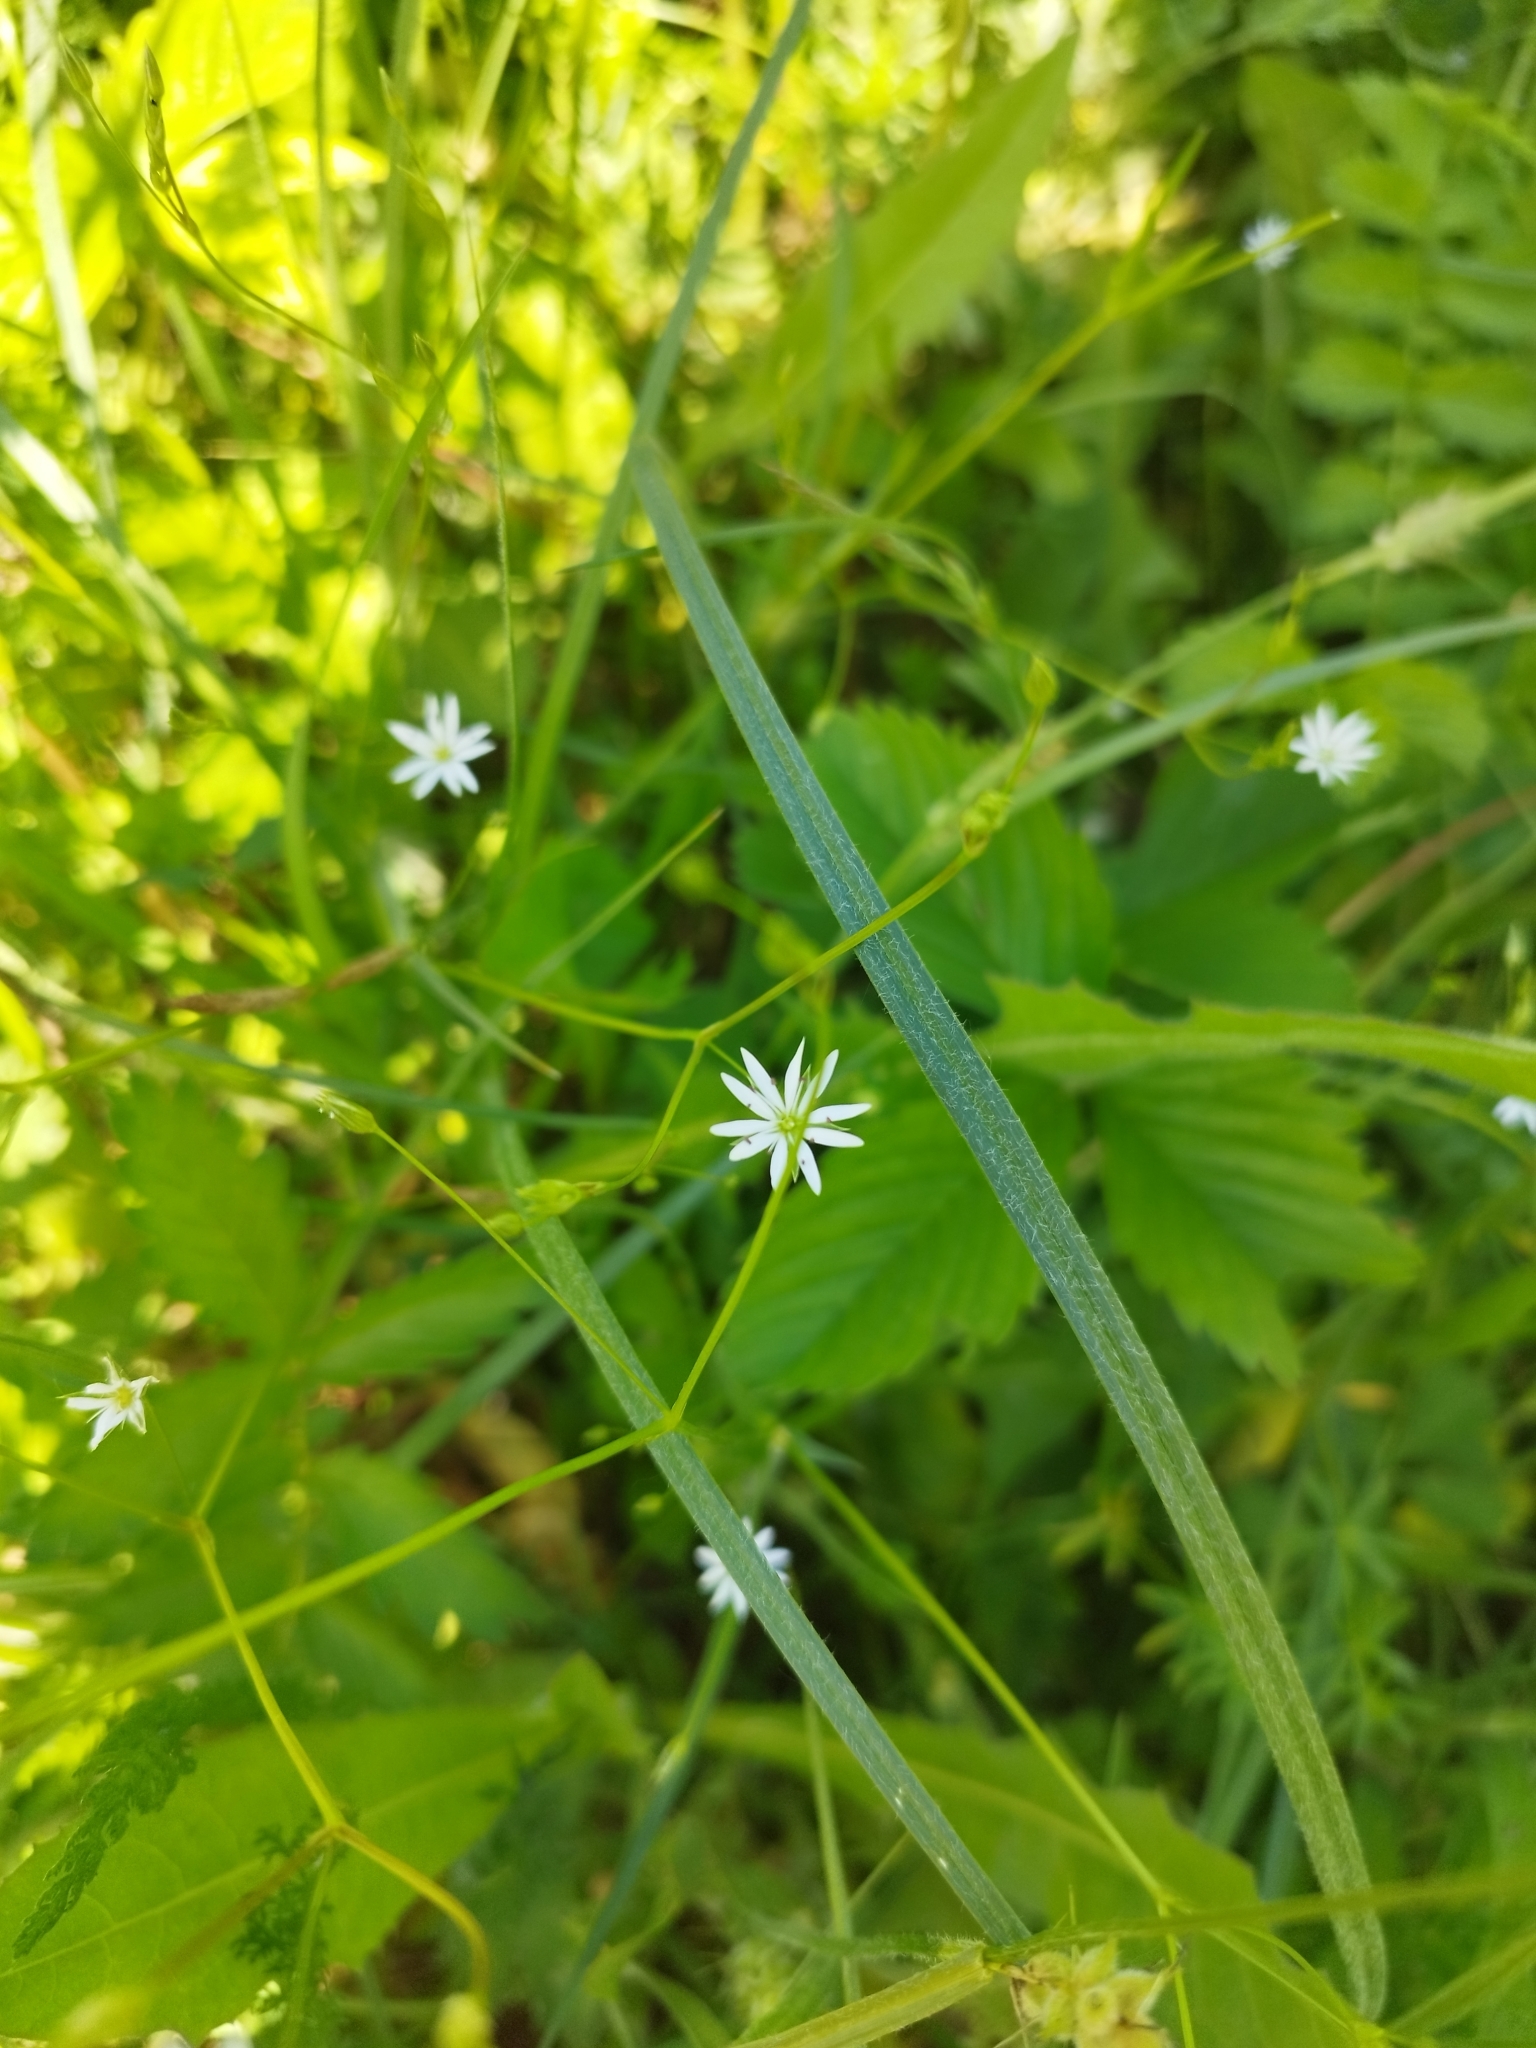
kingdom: Plantae
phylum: Tracheophyta
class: Magnoliopsida
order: Caryophyllales
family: Caryophyllaceae
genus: Stellaria
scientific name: Stellaria graminea
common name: Grass-like starwort
